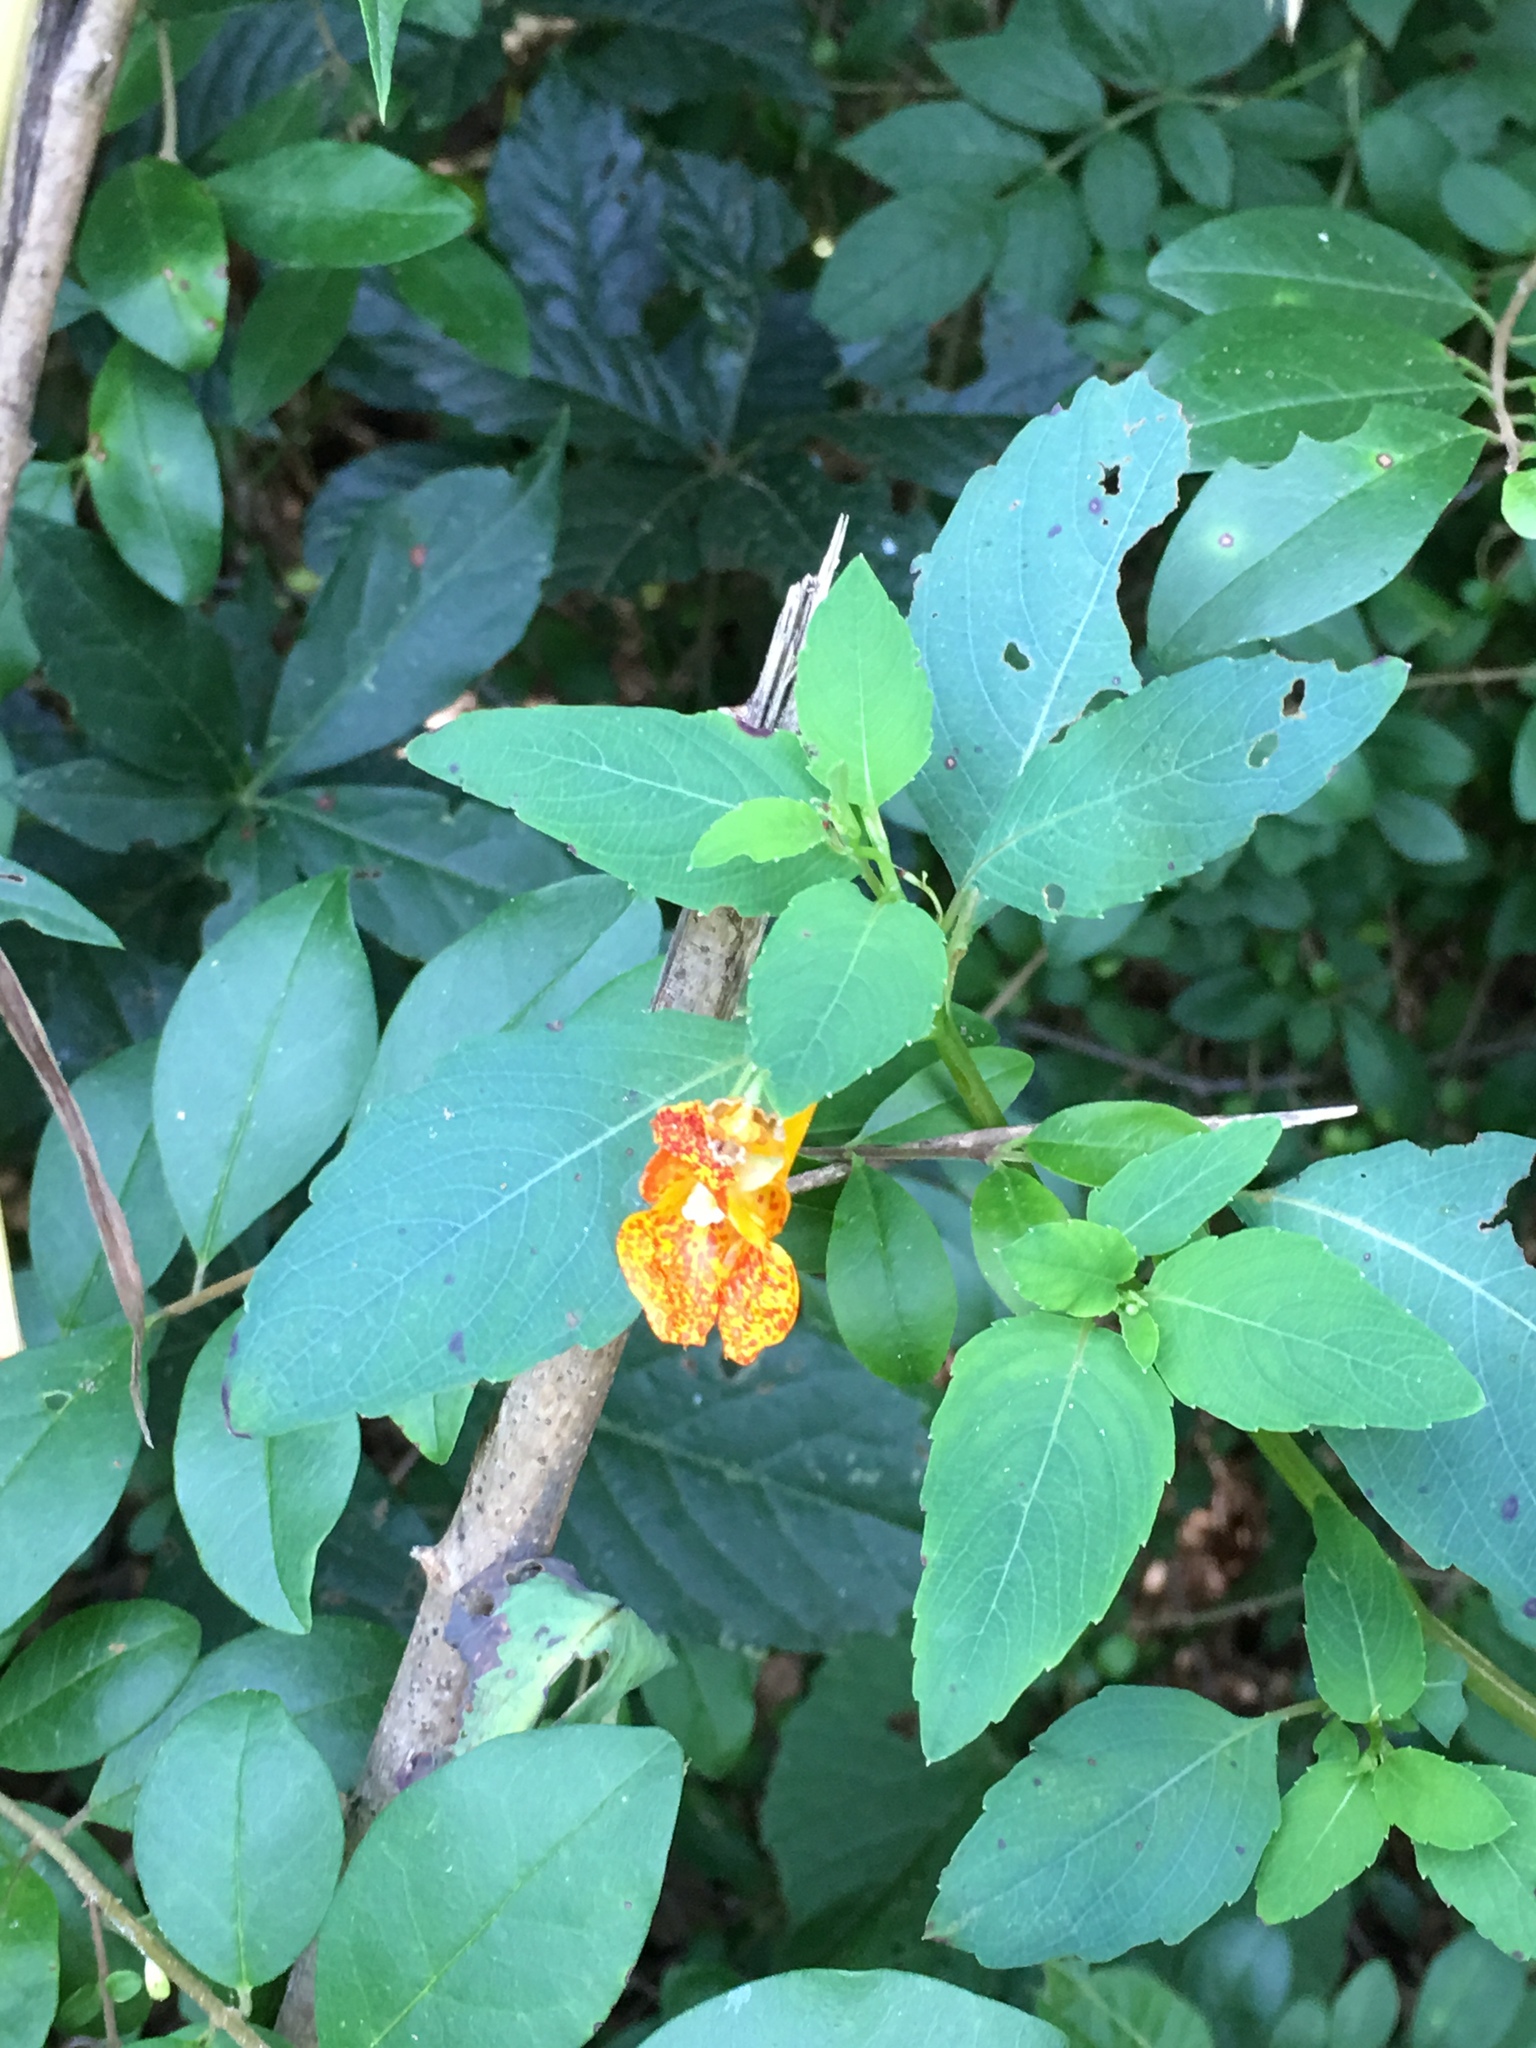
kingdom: Plantae
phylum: Tracheophyta
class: Magnoliopsida
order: Ericales
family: Balsaminaceae
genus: Impatiens
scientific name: Impatiens capensis
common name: Orange balsam
